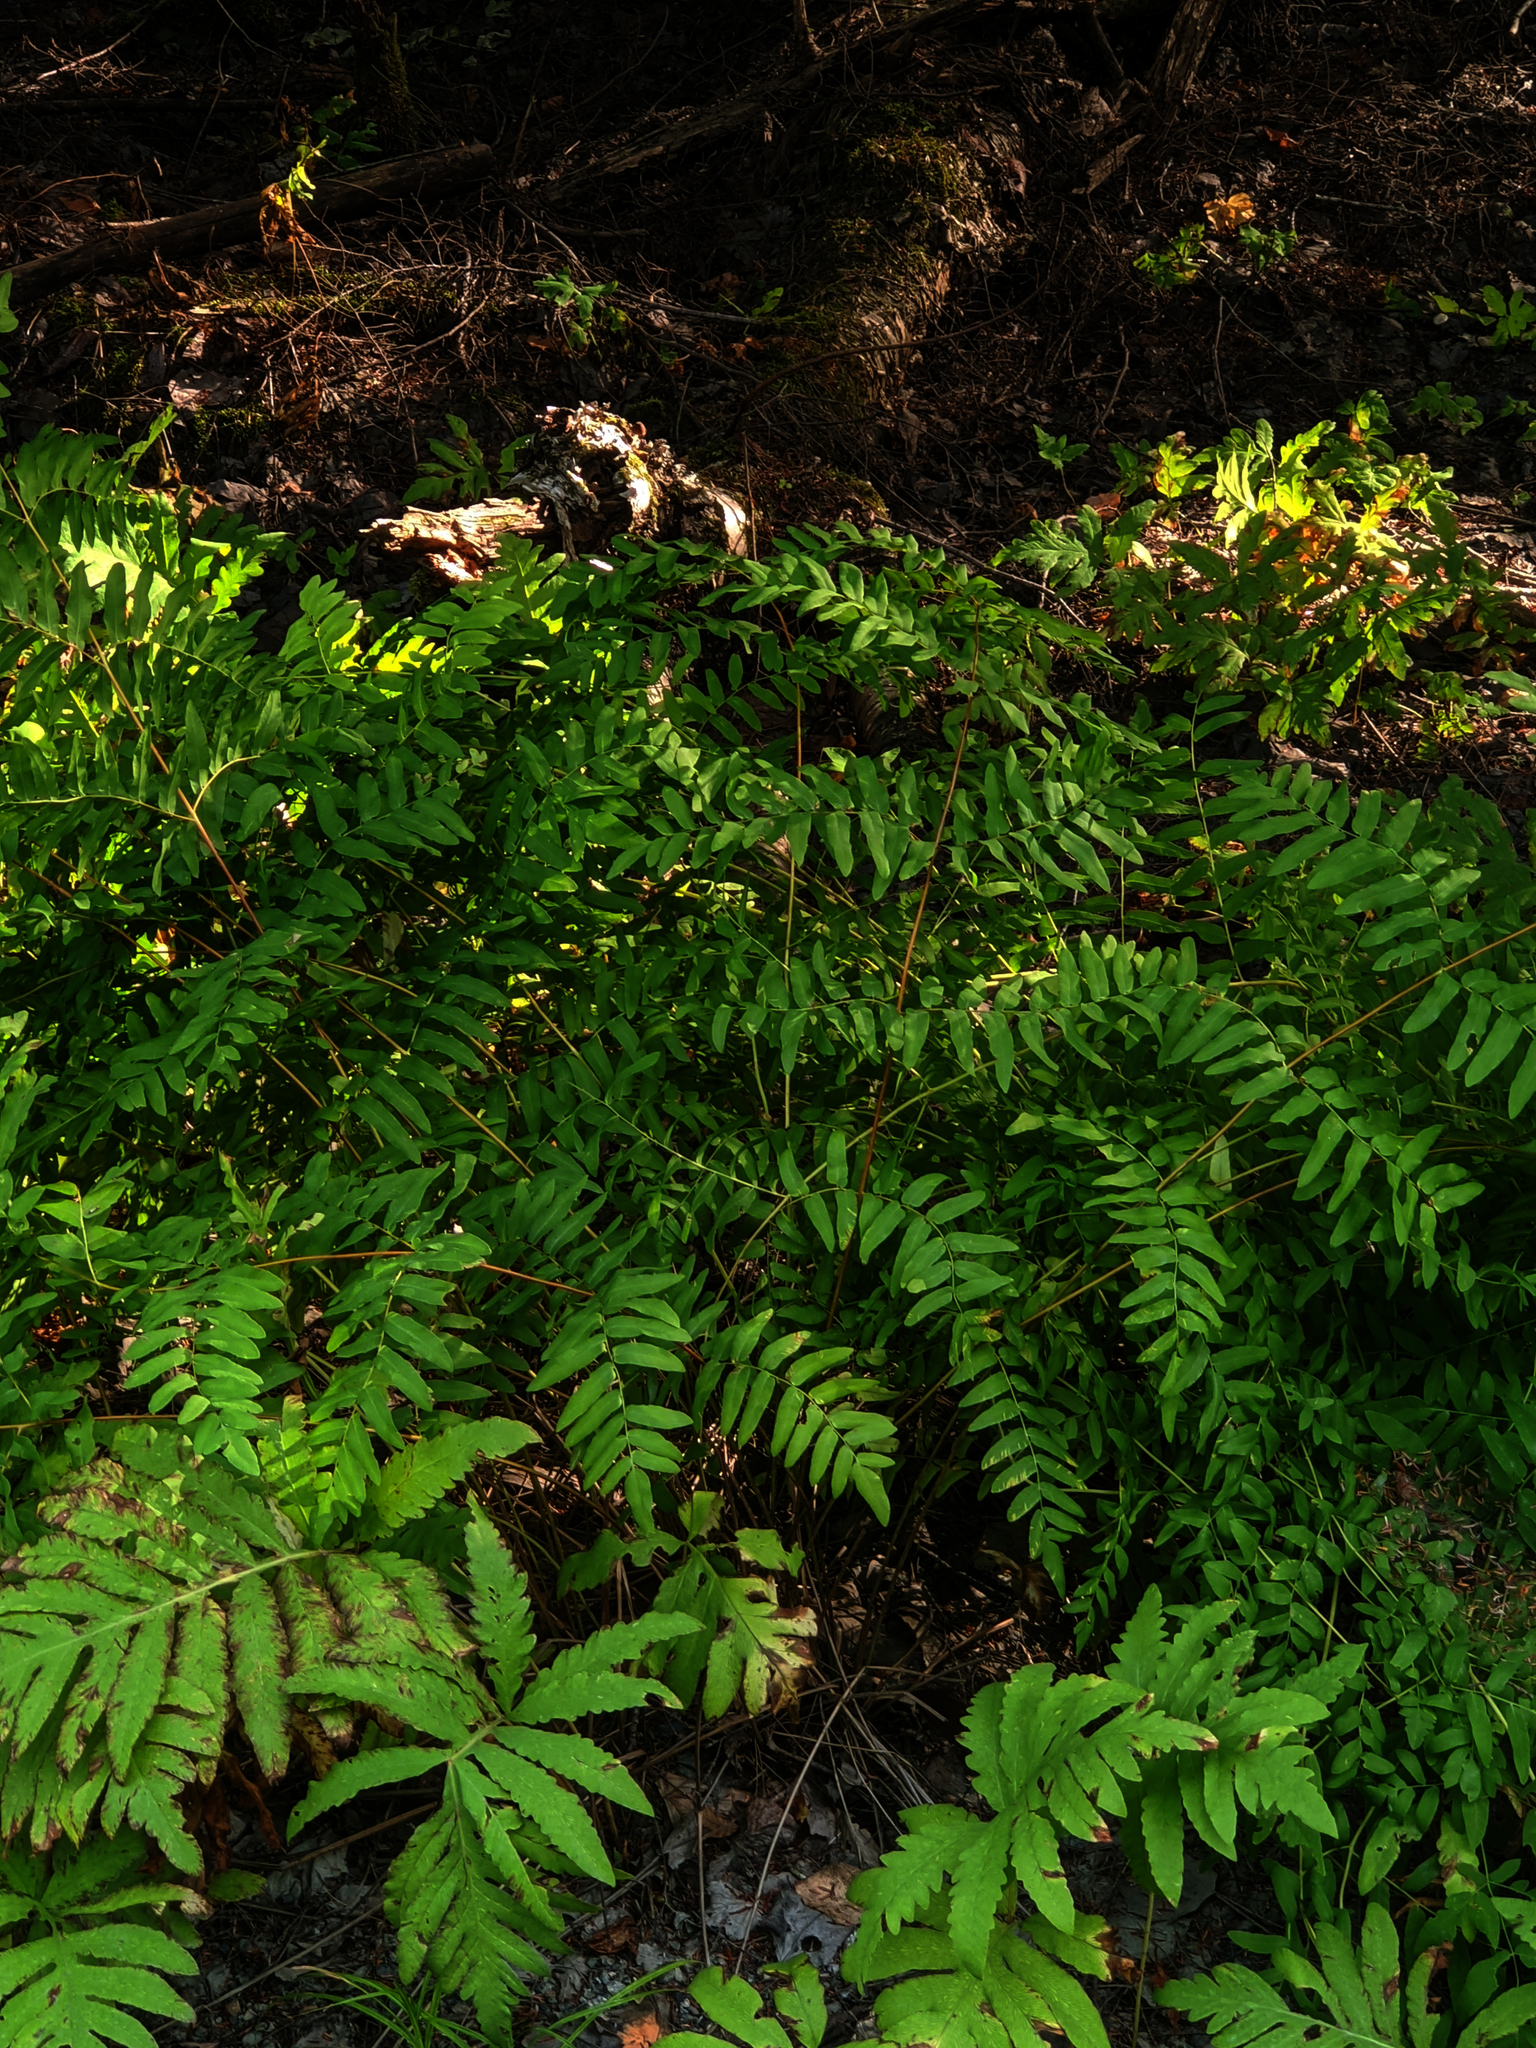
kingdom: Plantae
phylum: Tracheophyta
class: Polypodiopsida
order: Polypodiales
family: Onocleaceae
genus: Onoclea
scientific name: Onoclea sensibilis
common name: Sensitive fern
